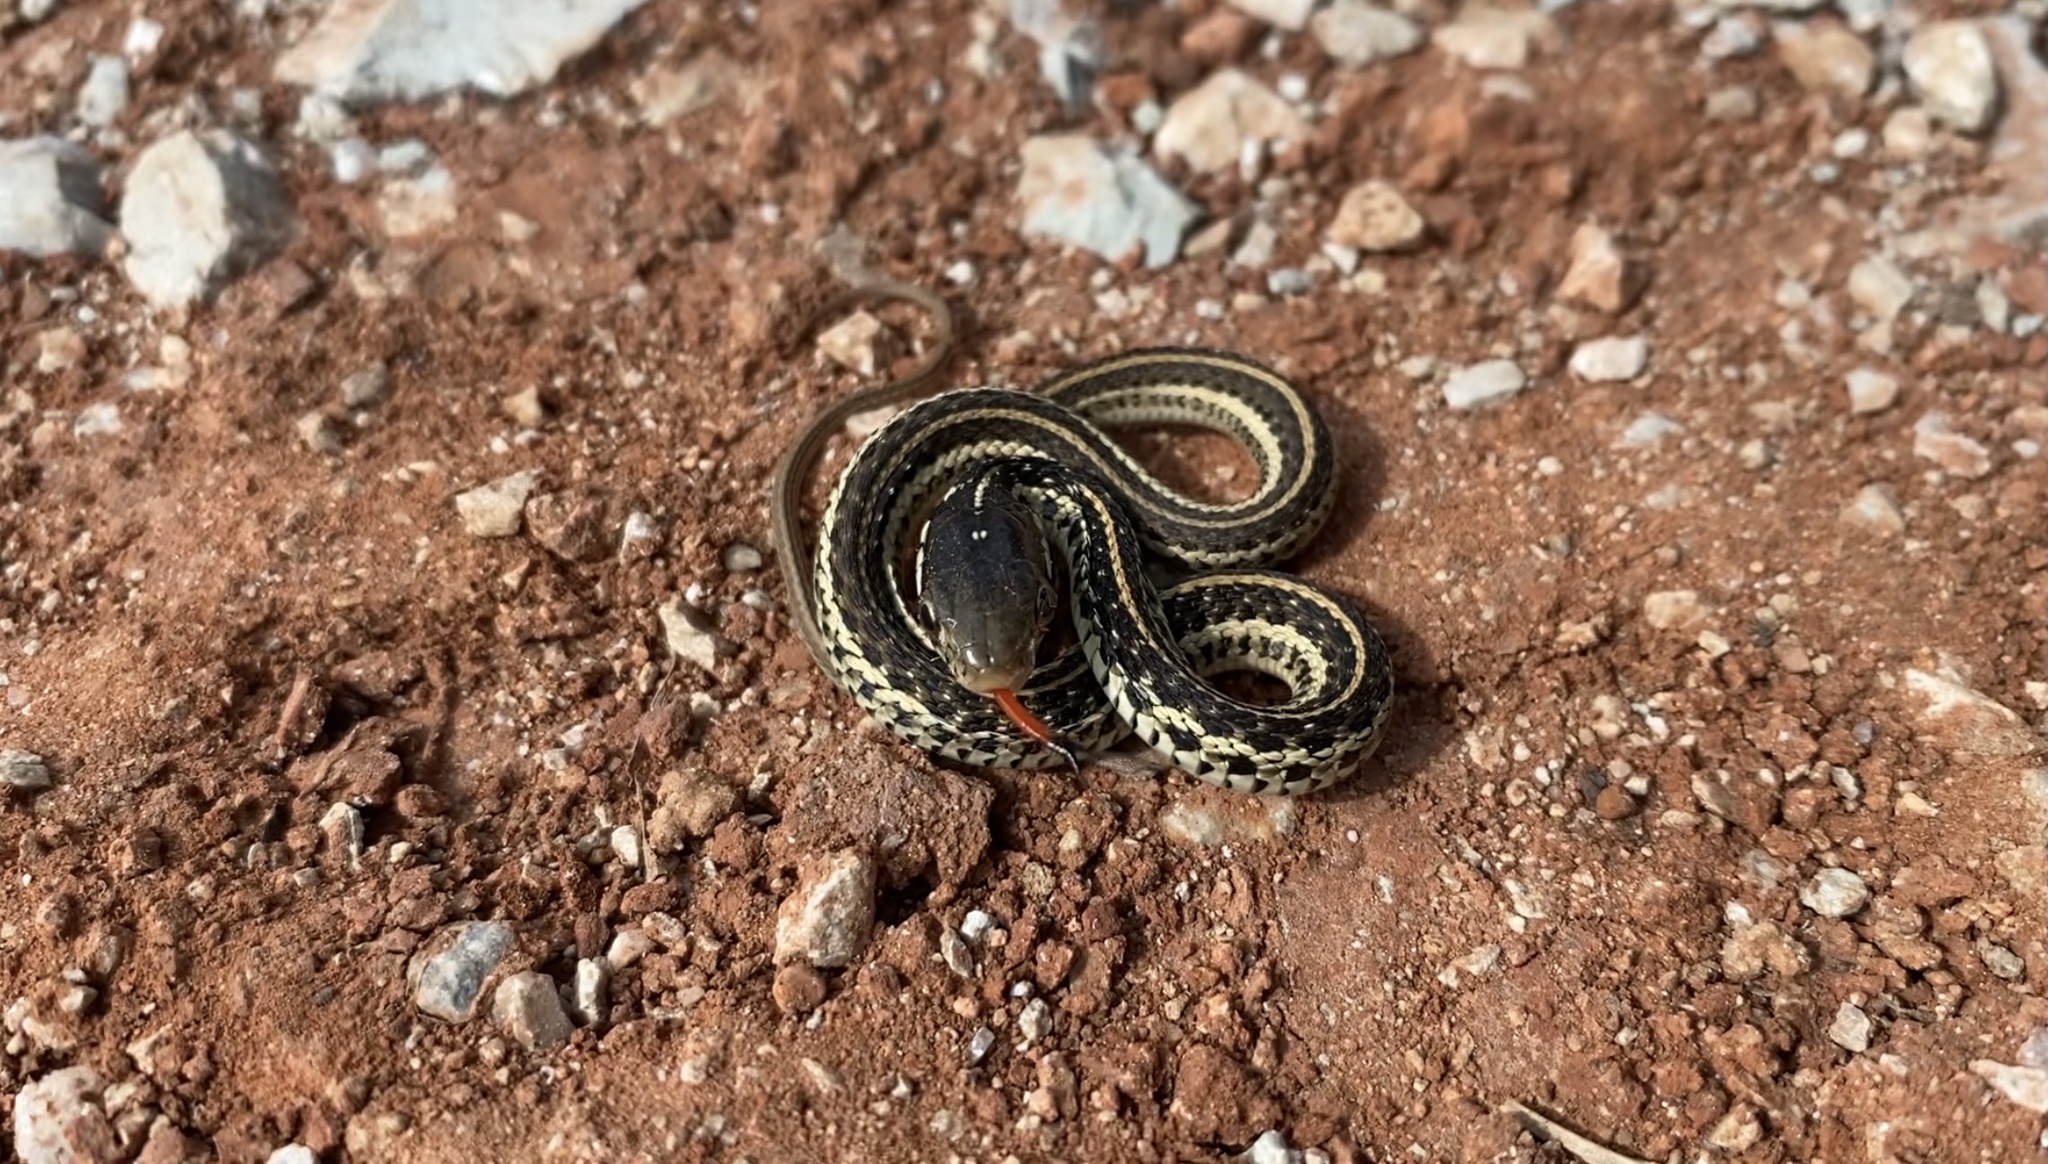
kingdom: Animalia
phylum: Chordata
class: Squamata
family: Colubridae
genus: Thamnophis
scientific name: Thamnophis sirtalis
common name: Common garter snake
